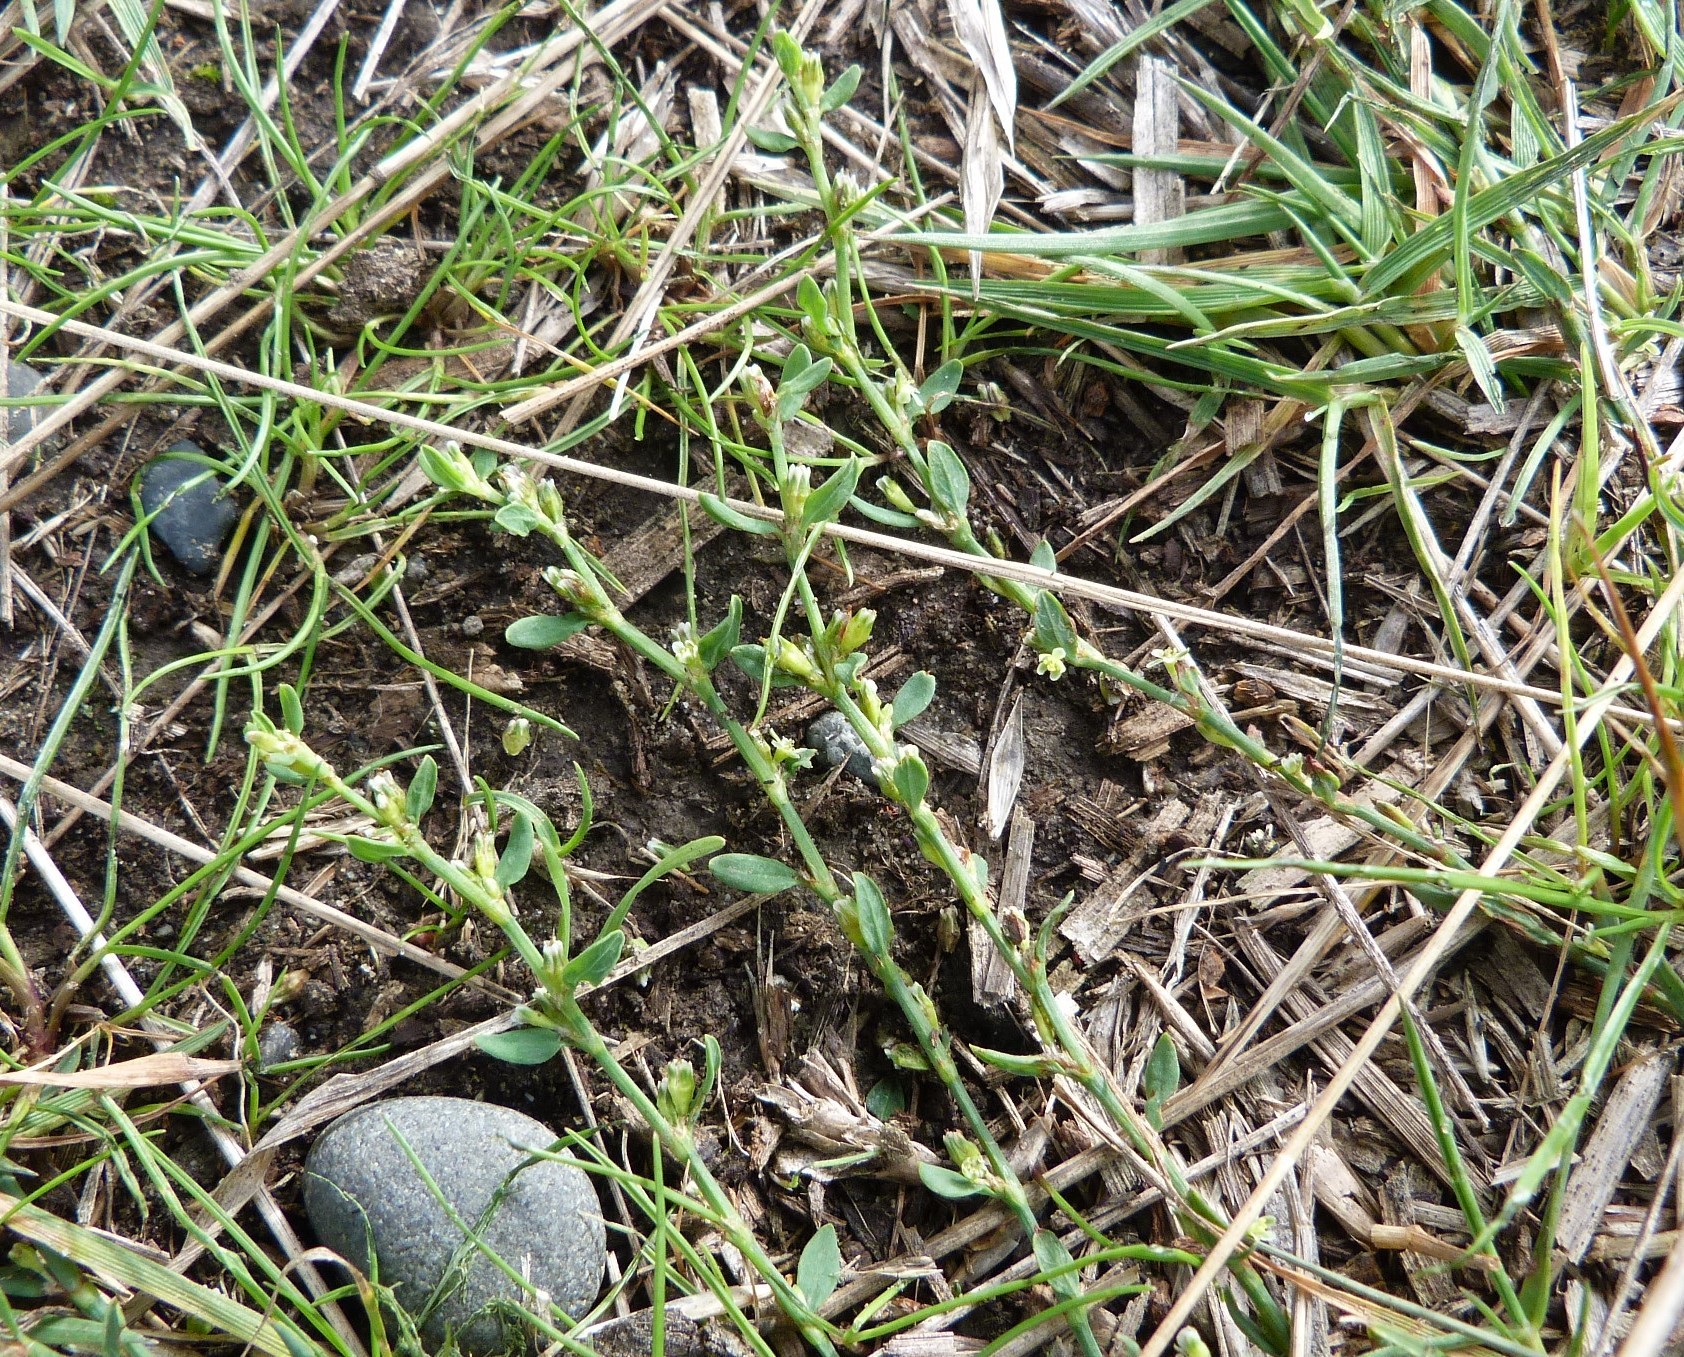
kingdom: Plantae
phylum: Tracheophyta
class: Magnoliopsida
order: Caryophyllales
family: Polygonaceae
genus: Polygonum
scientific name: Polygonum aviculare
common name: Prostrate knotweed
